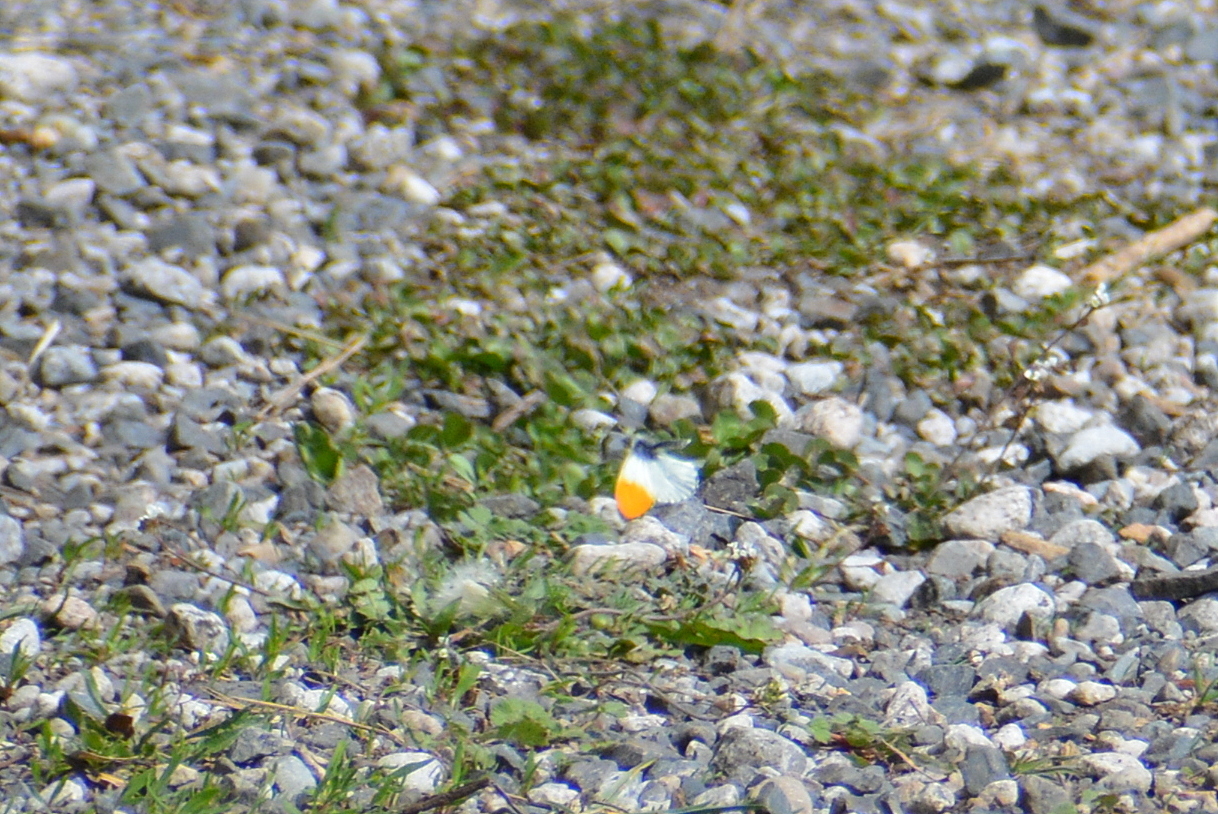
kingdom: Animalia
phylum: Arthropoda
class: Insecta
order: Lepidoptera
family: Pieridae
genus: Anthocharis
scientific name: Anthocharis cardamines
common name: Orange-tip
